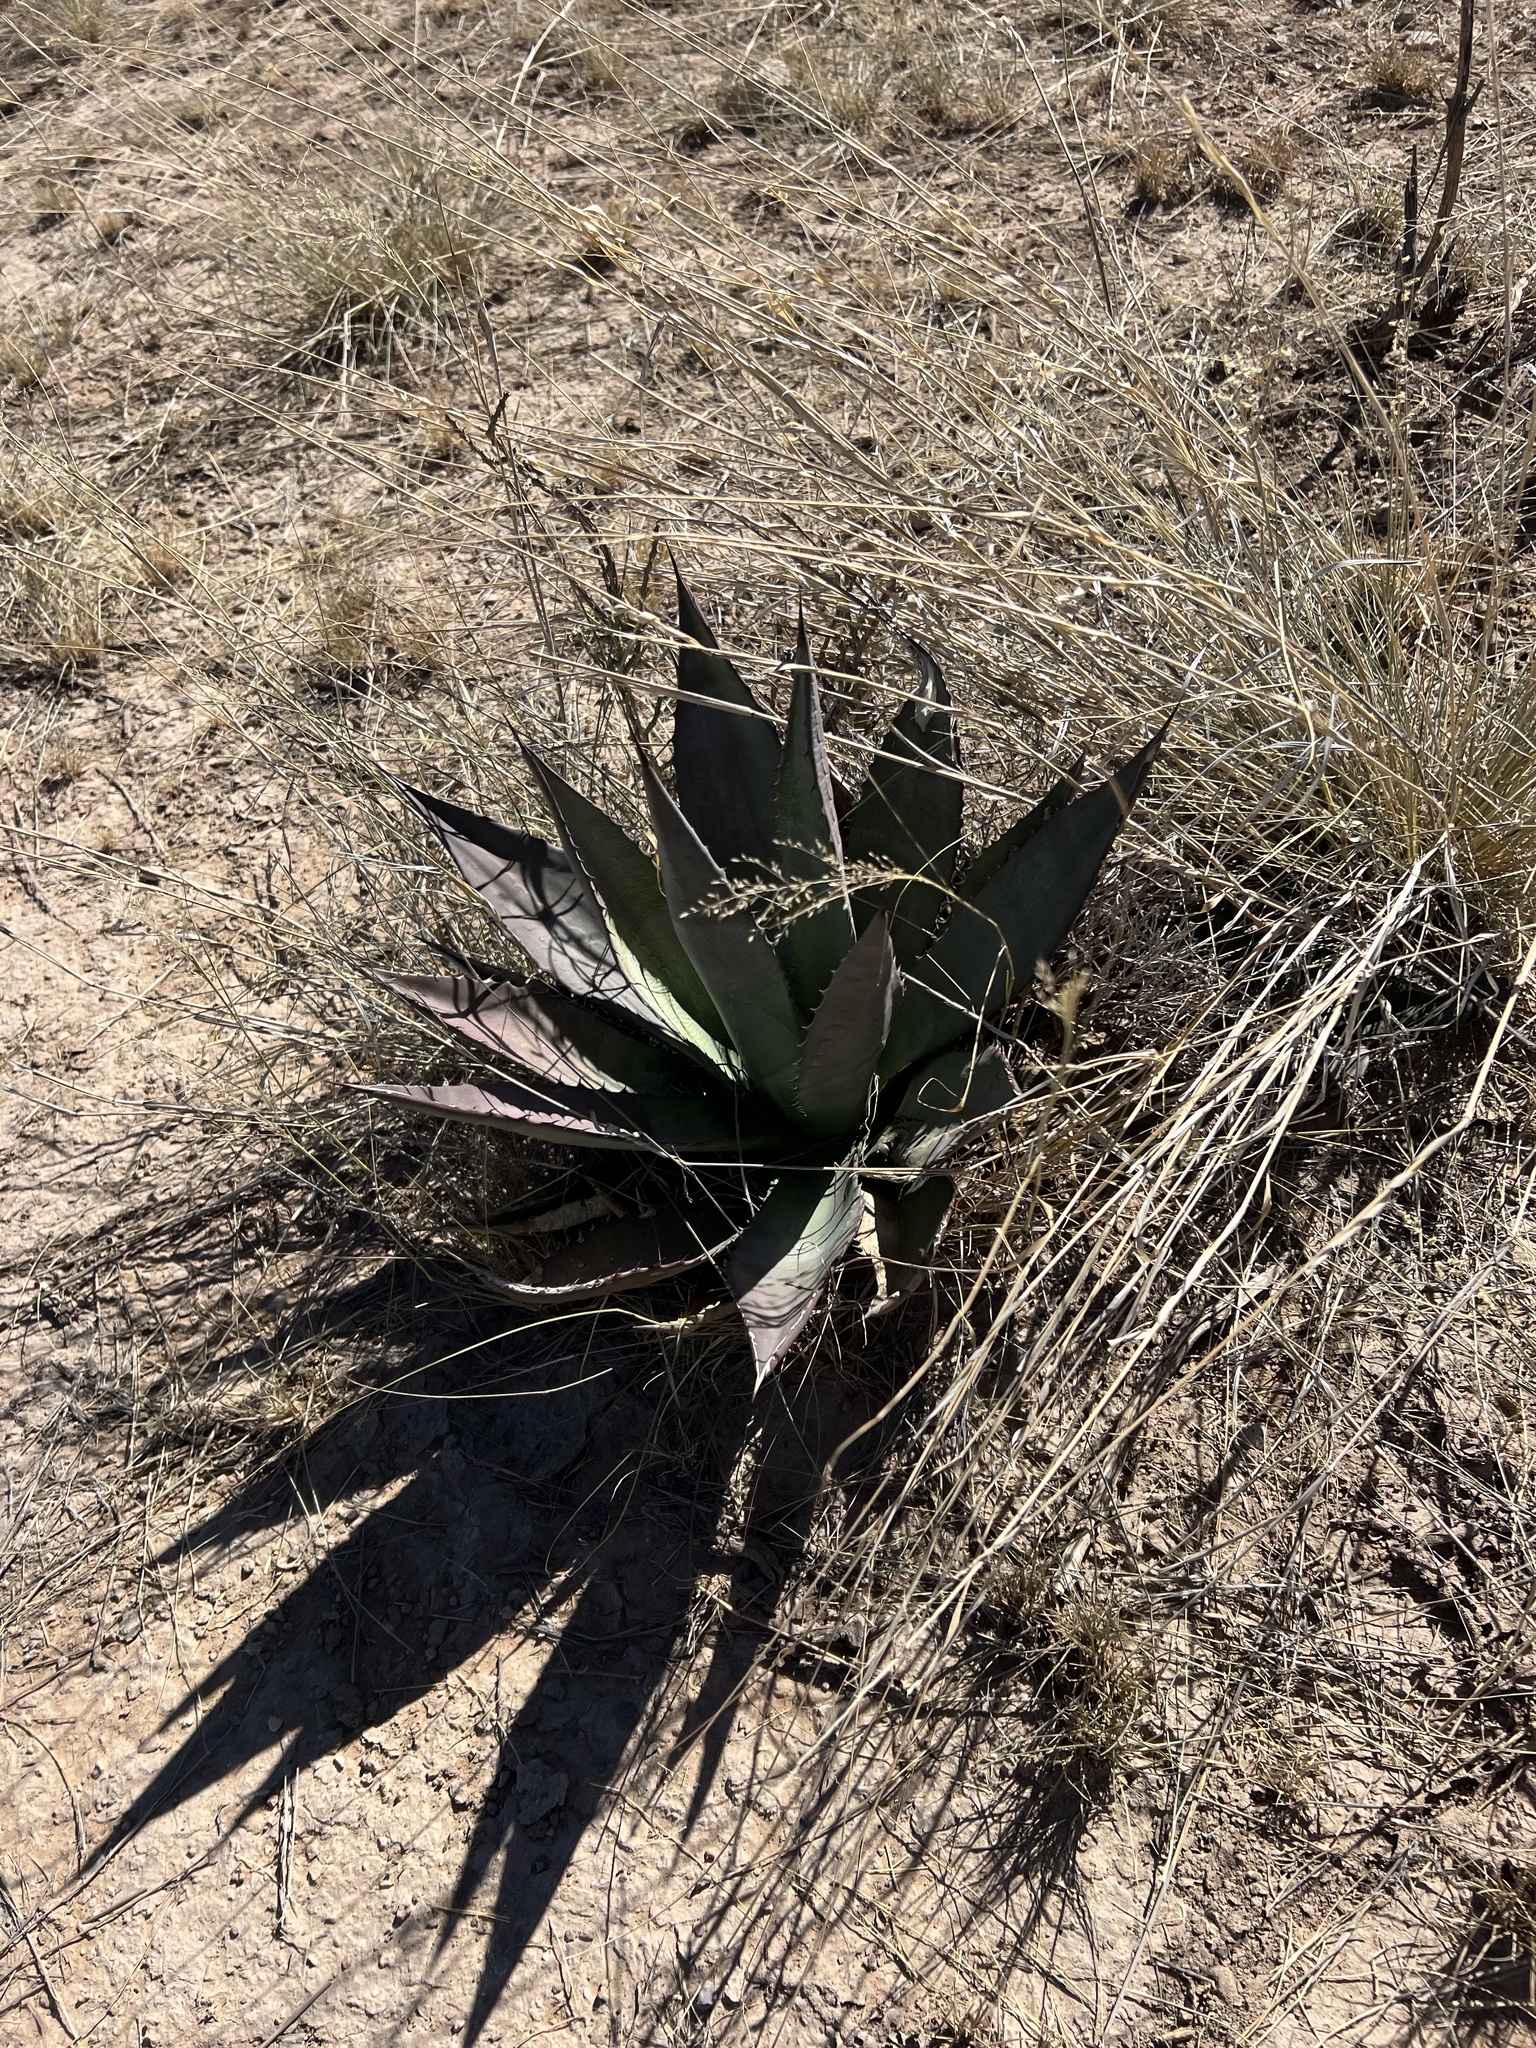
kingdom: Plantae
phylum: Tracheophyta
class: Liliopsida
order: Asparagales
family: Asparagaceae
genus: Agave
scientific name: Agave palmeri
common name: Palmer agave
